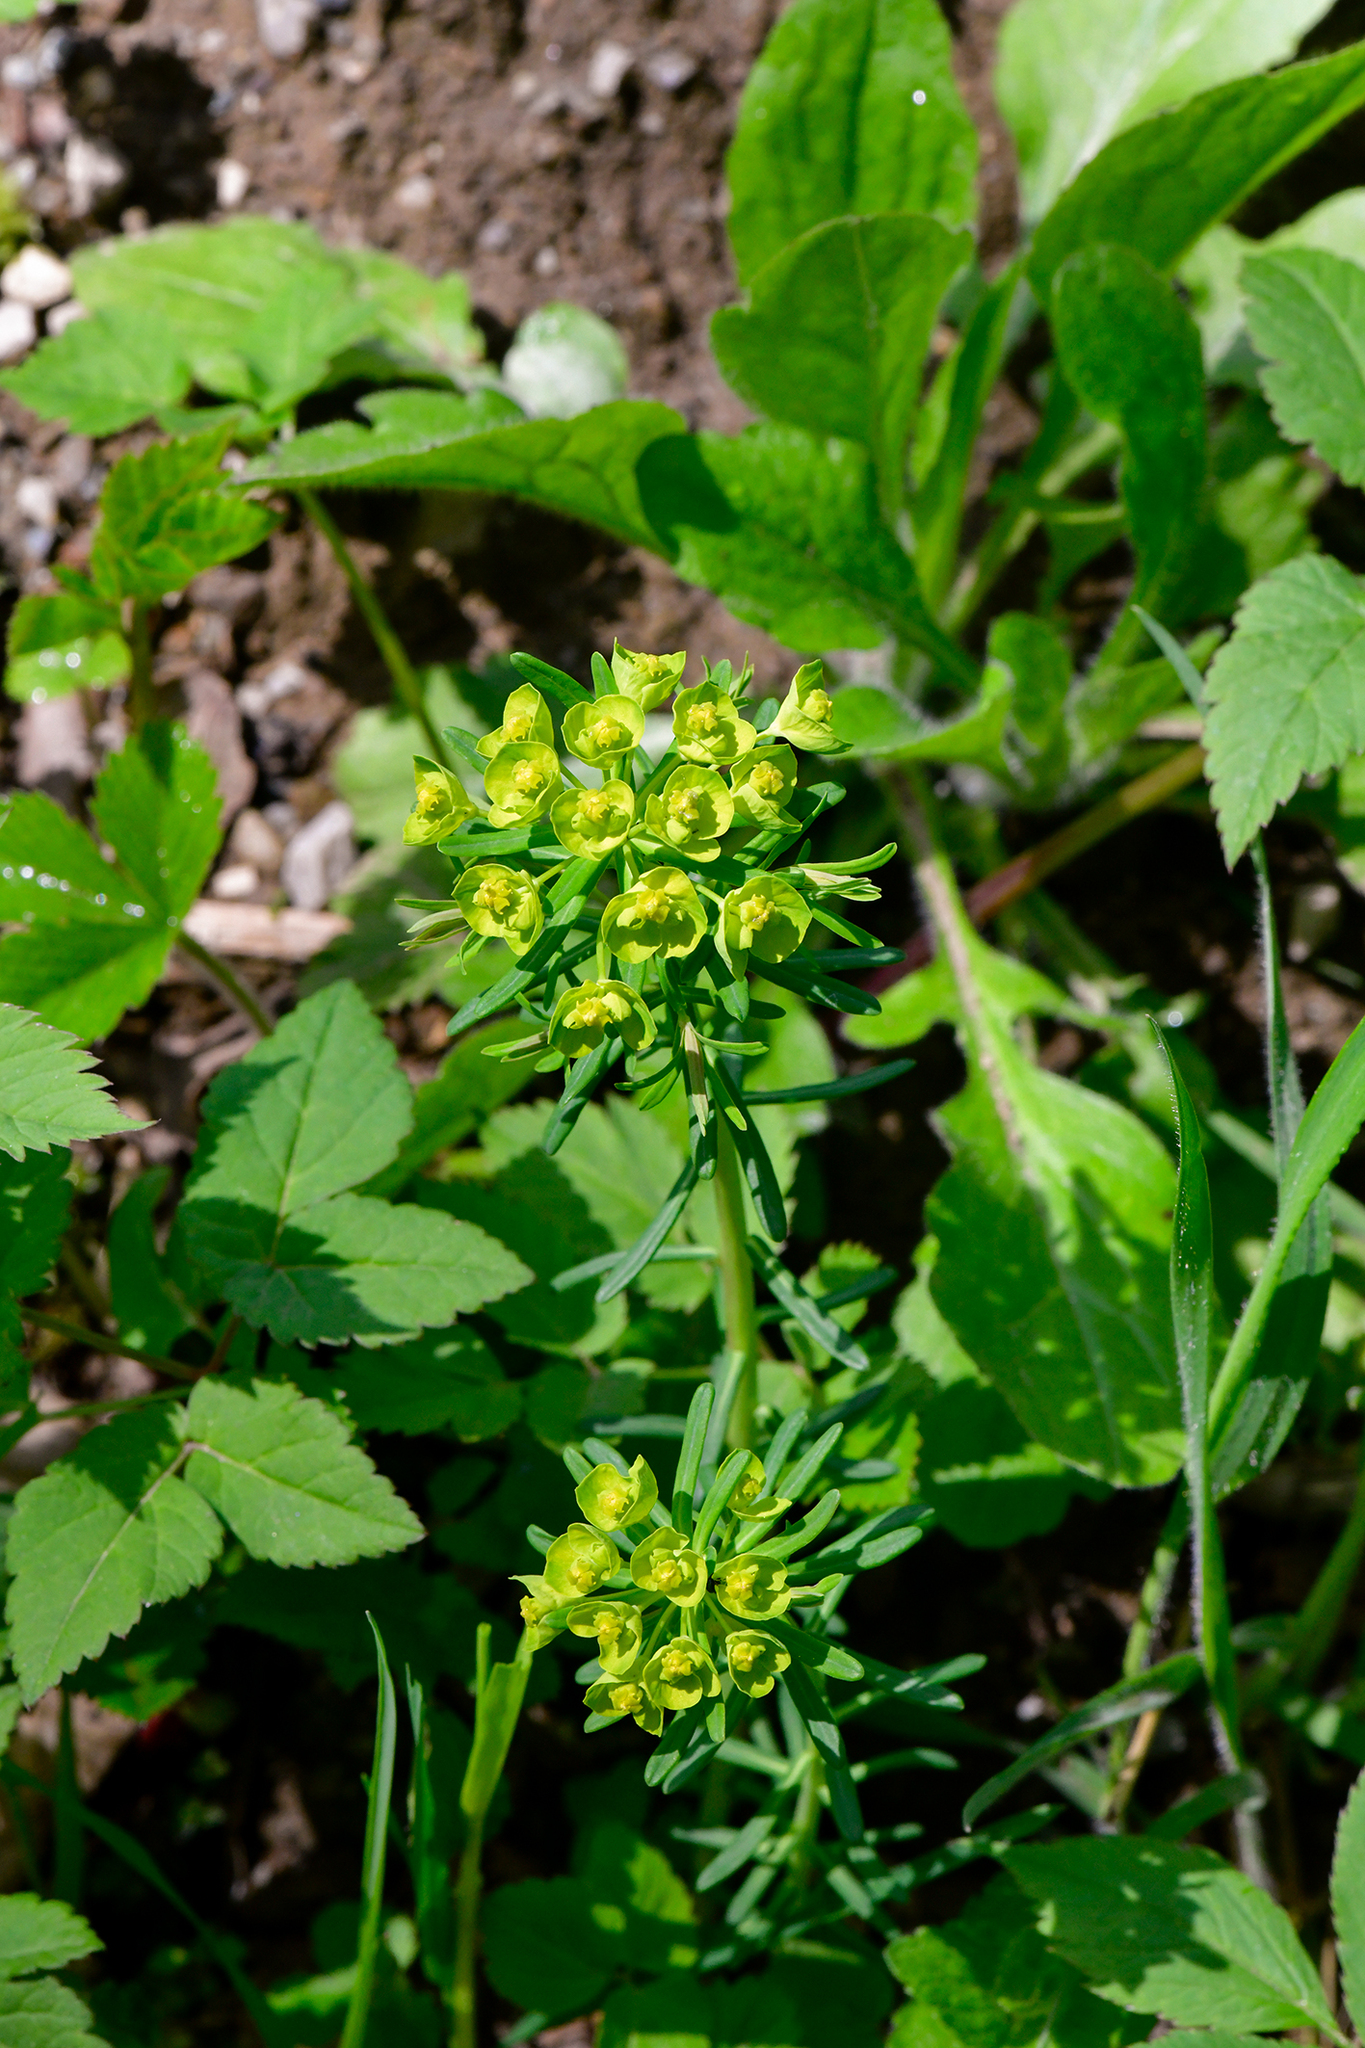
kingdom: Plantae
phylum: Tracheophyta
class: Magnoliopsida
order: Malpighiales
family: Euphorbiaceae
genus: Euphorbia
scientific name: Euphorbia cyparissias
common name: Cypress spurge
